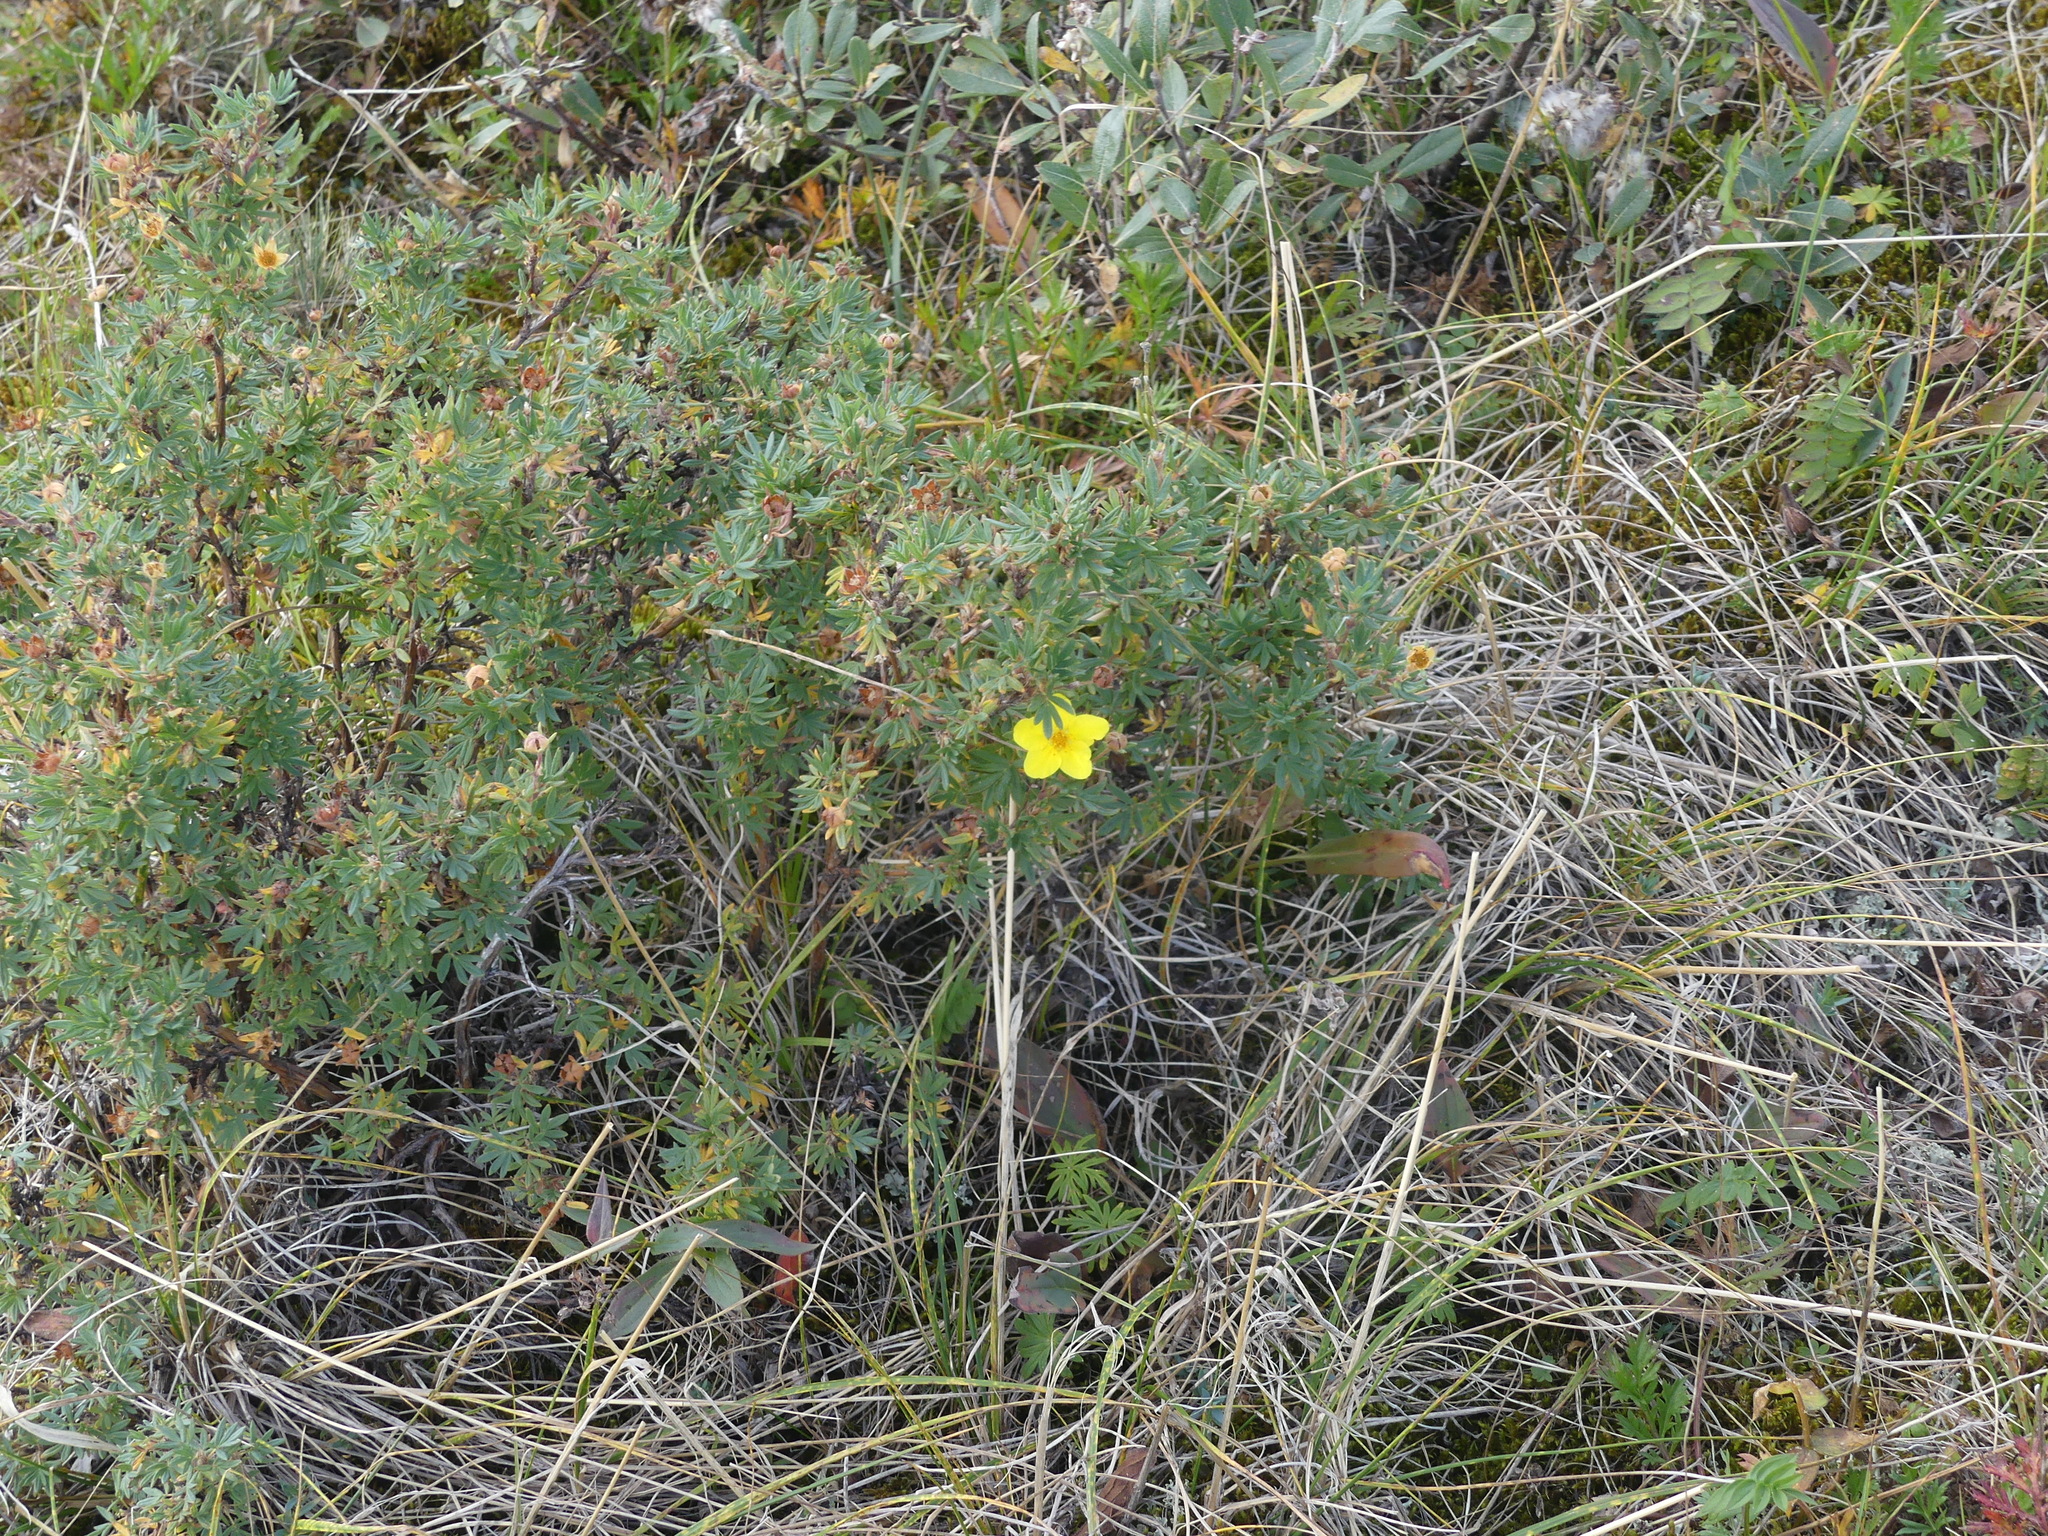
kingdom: Plantae
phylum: Tracheophyta
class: Magnoliopsida
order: Rosales
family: Rosaceae
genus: Dasiphora
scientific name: Dasiphora fruticosa
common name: Shrubby cinquefoil
